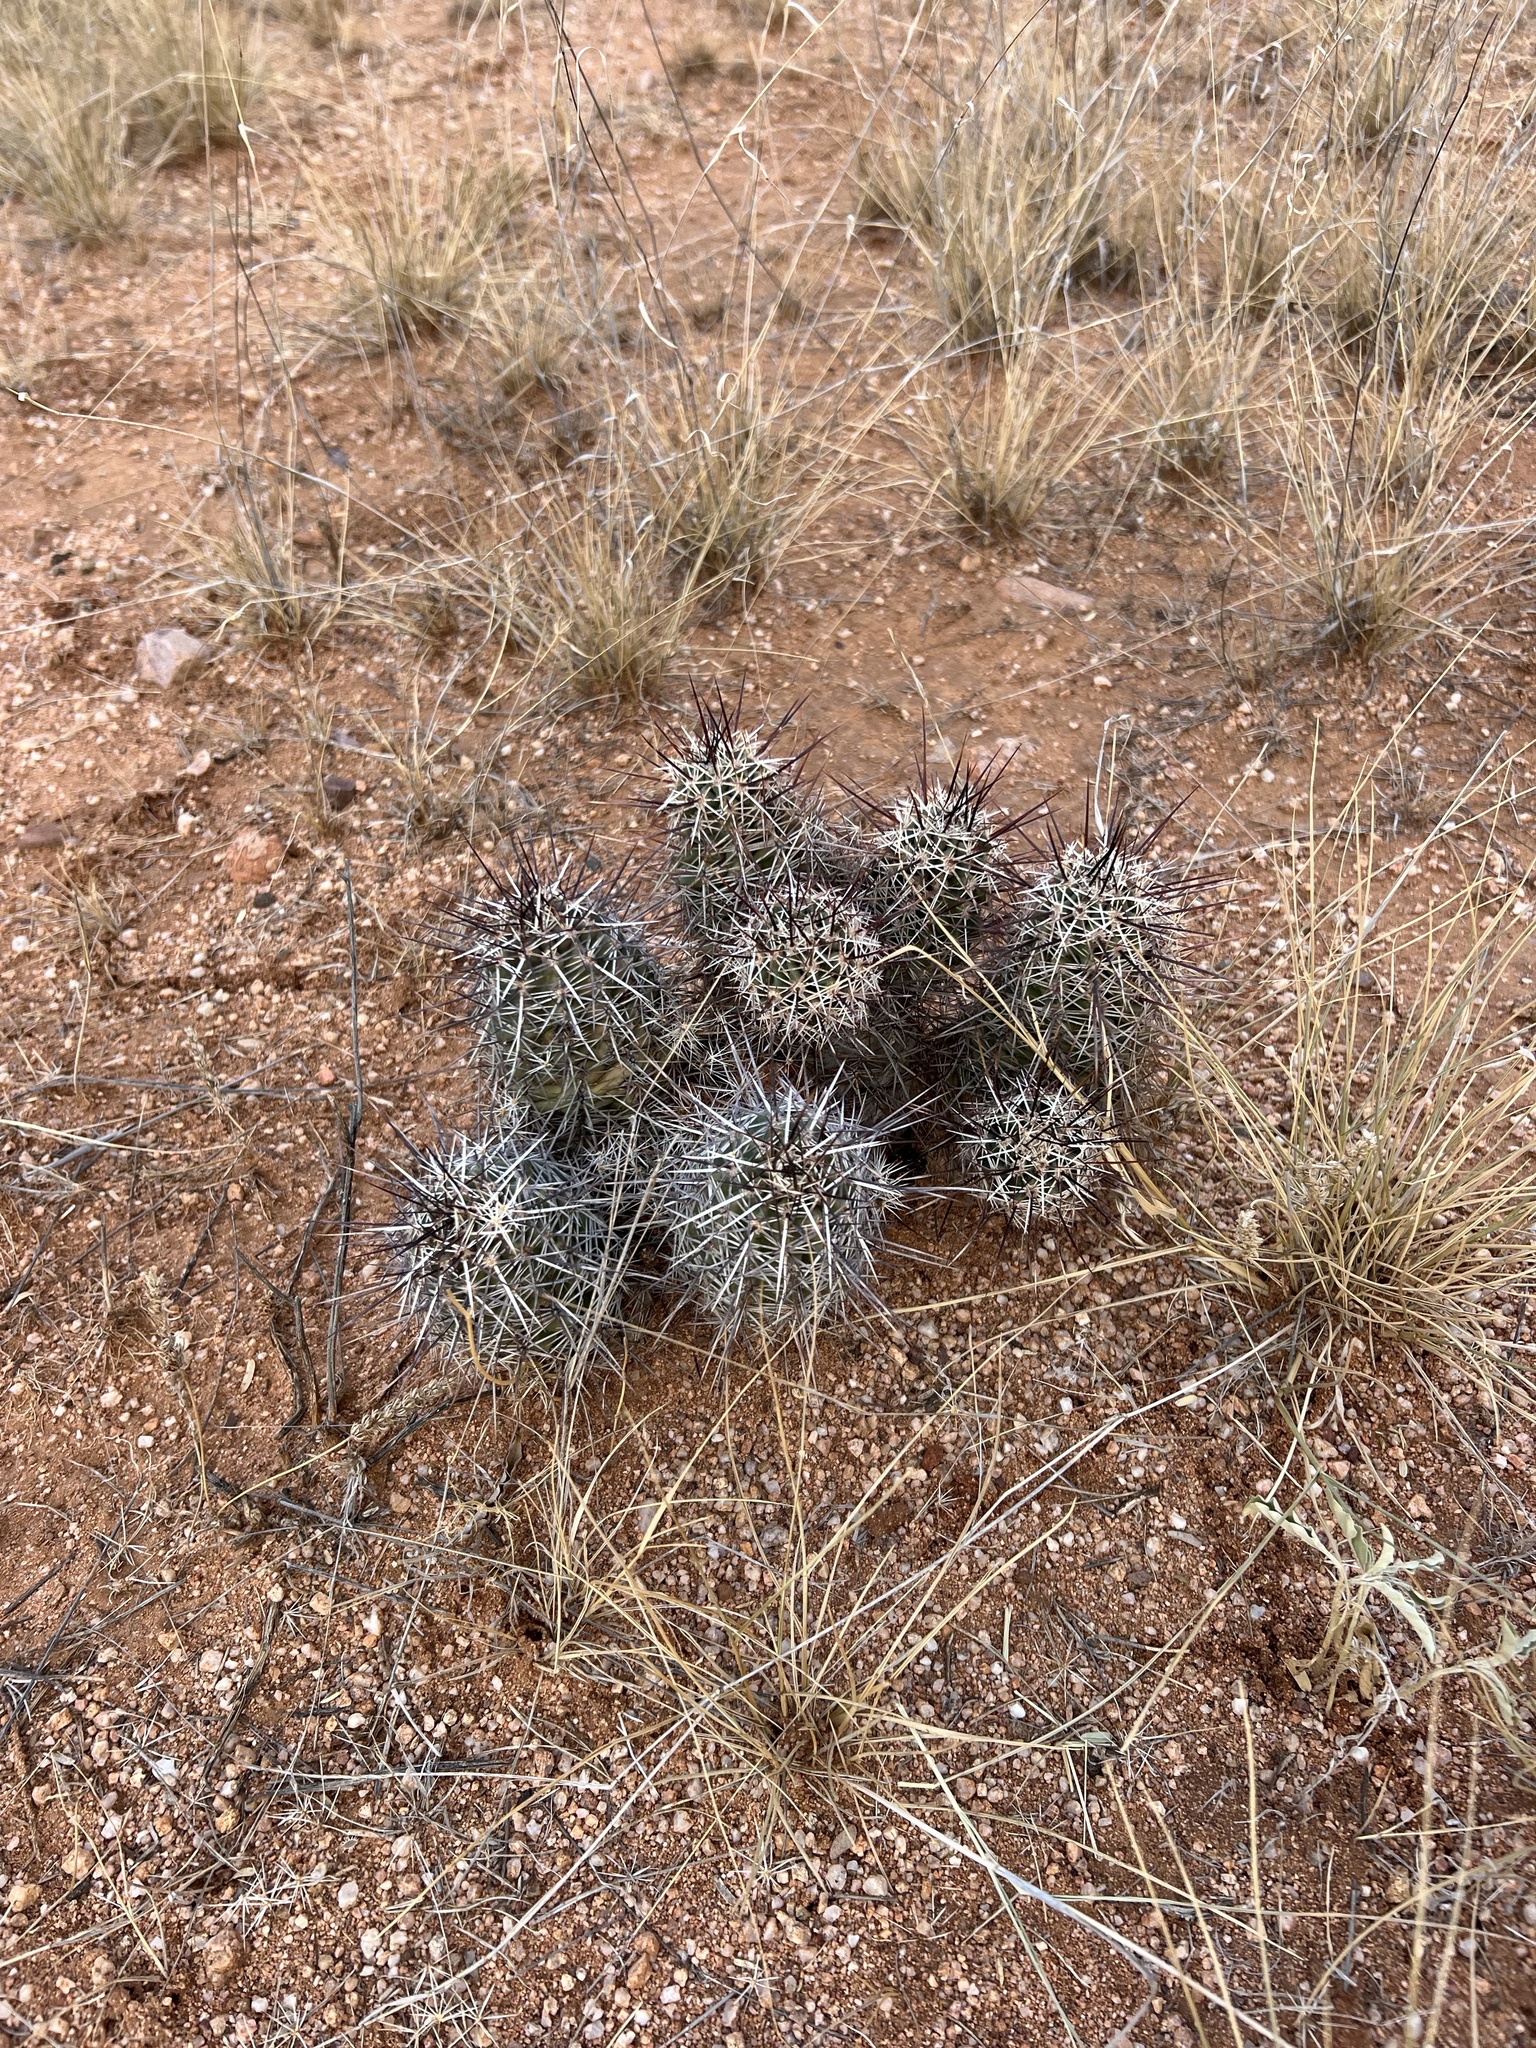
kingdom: Plantae
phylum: Tracheophyta
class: Magnoliopsida
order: Caryophyllales
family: Cactaceae
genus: Echinocereus
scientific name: Echinocereus fasciculatus
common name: Bundle hedgehog
